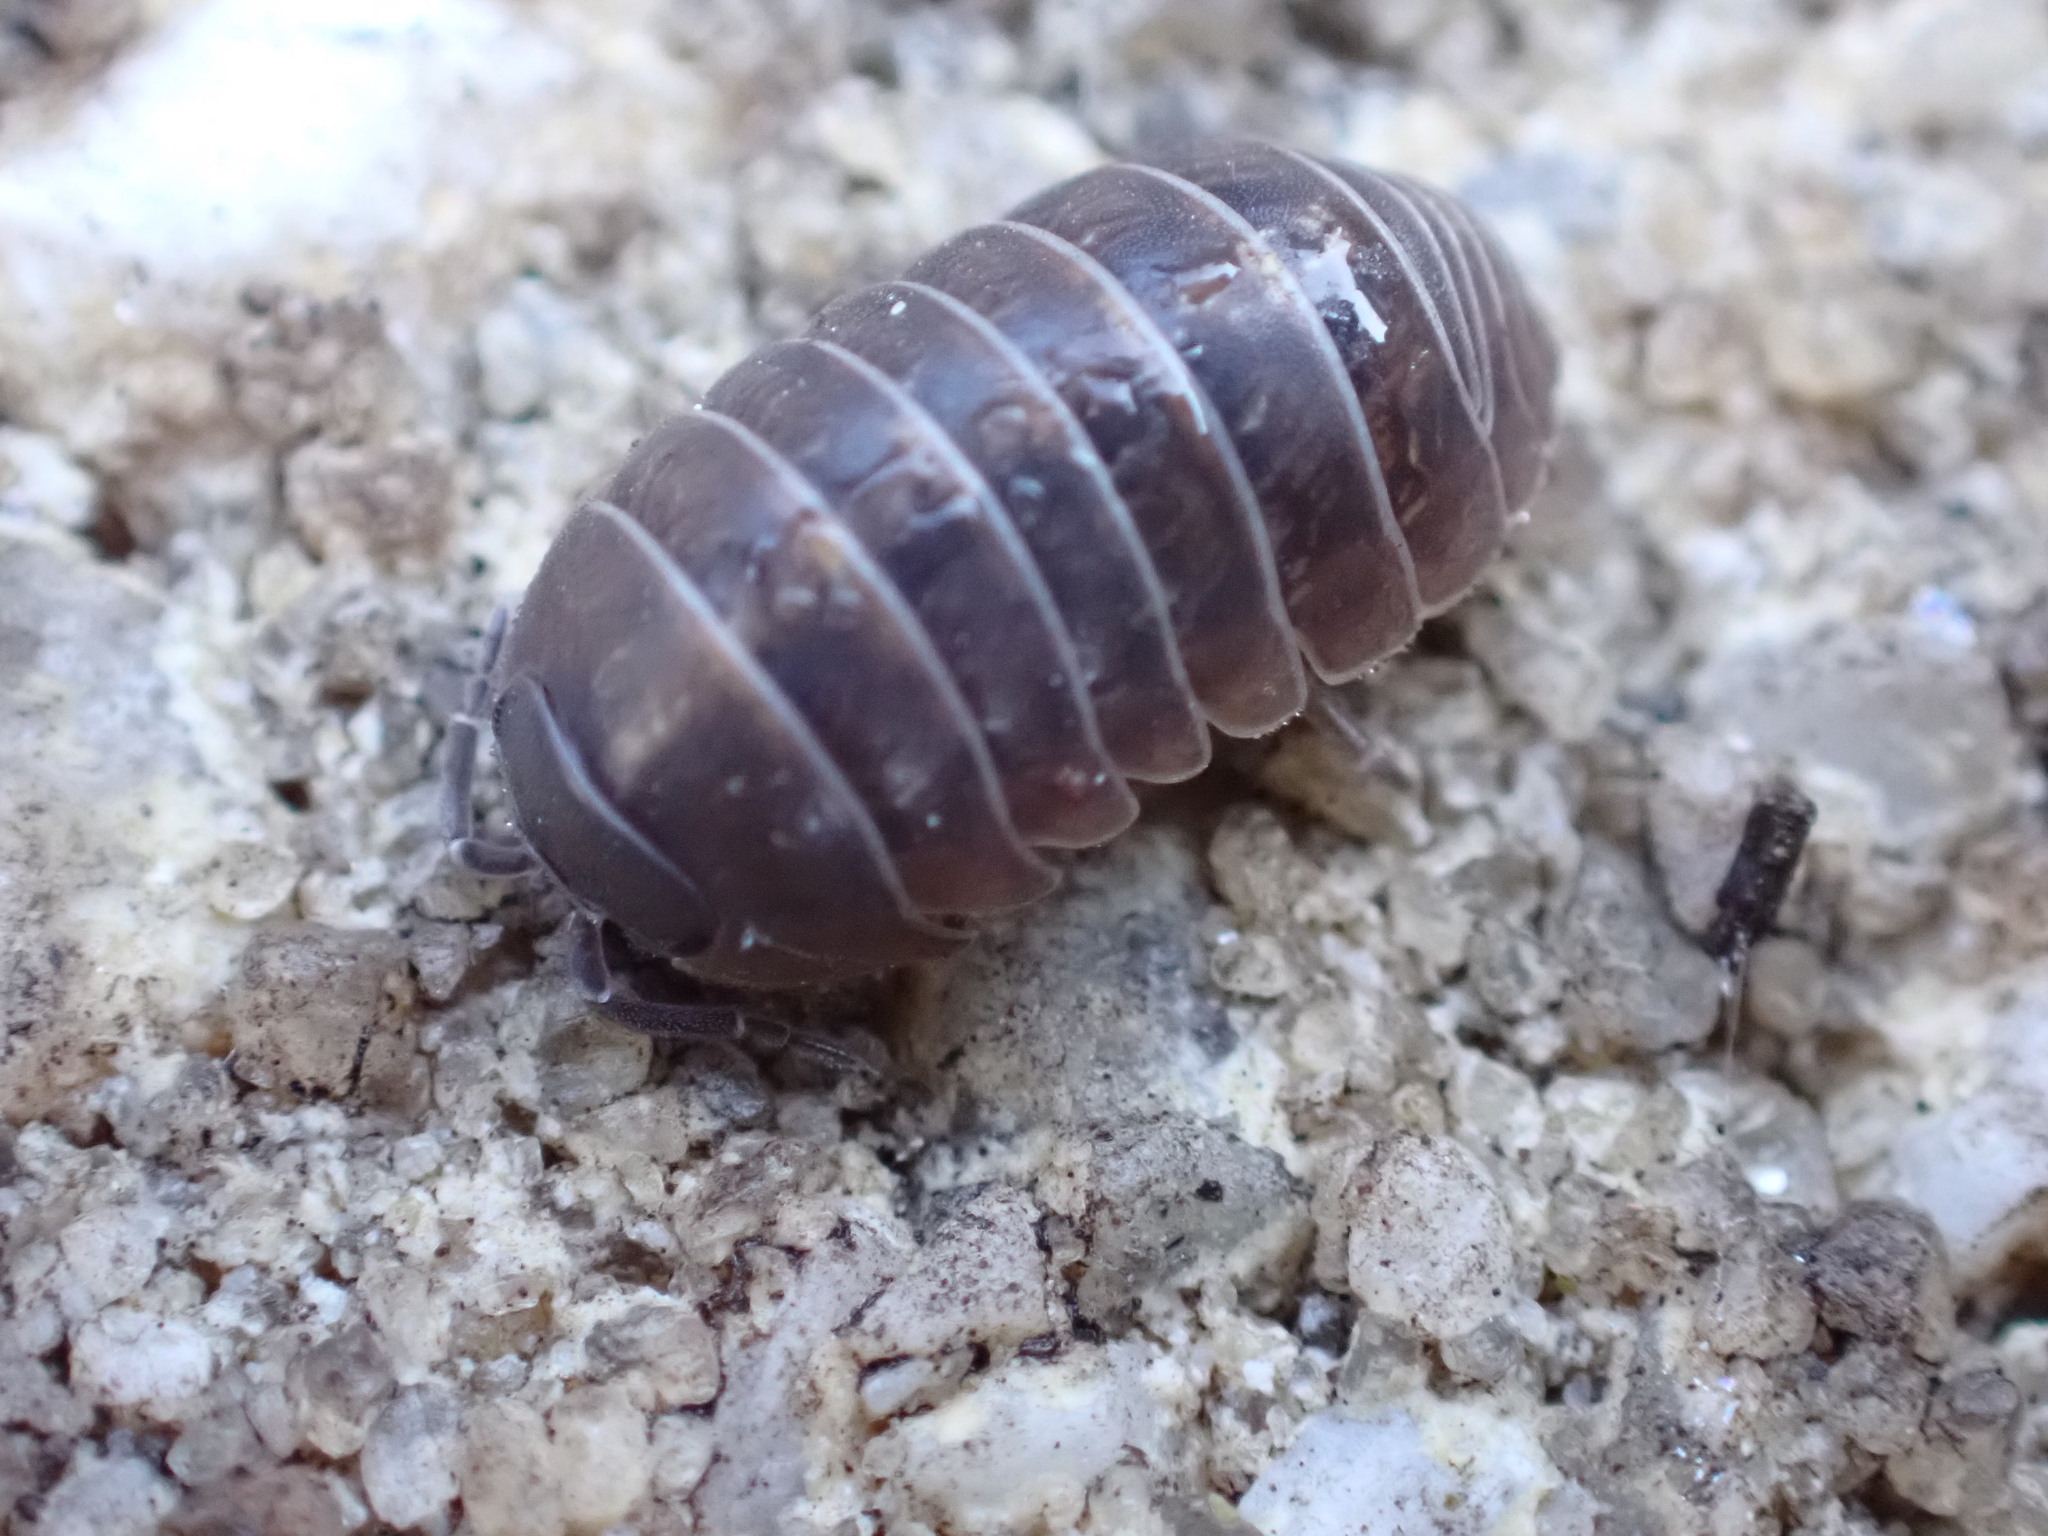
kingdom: Animalia
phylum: Arthropoda
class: Malacostraca
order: Isopoda
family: Armadillidiidae
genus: Armadillidium
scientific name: Armadillidium vulgare
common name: Common pill woodlouse
